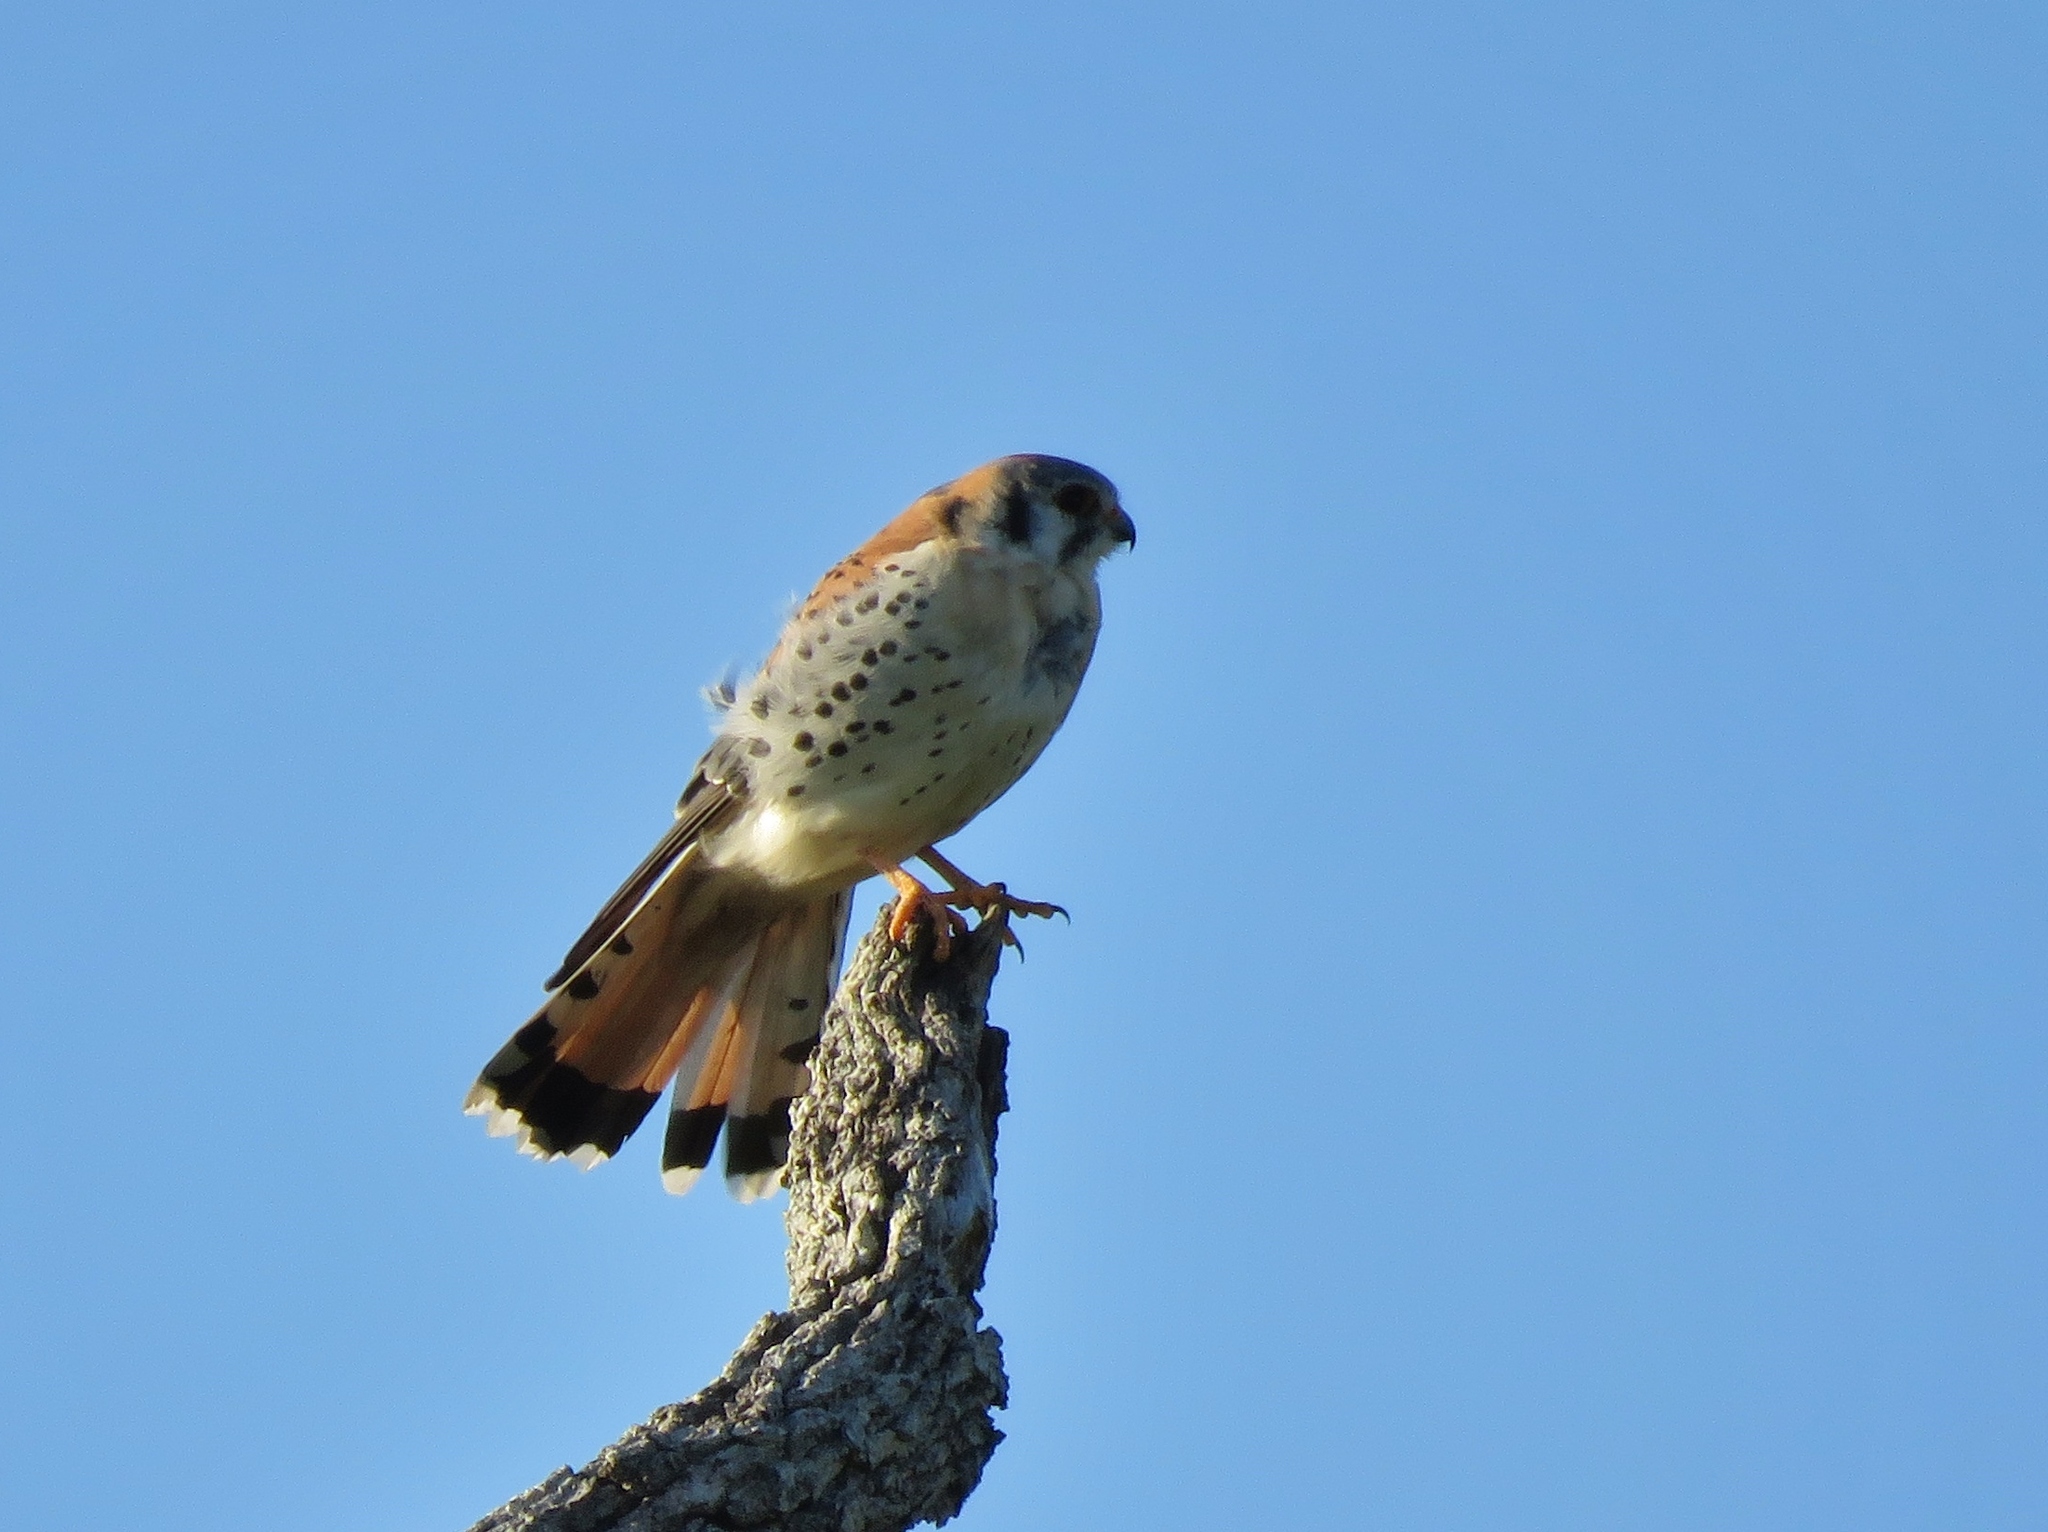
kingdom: Animalia
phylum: Chordata
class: Aves
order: Falconiformes
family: Falconidae
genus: Falco
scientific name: Falco sparverius
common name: American kestrel
